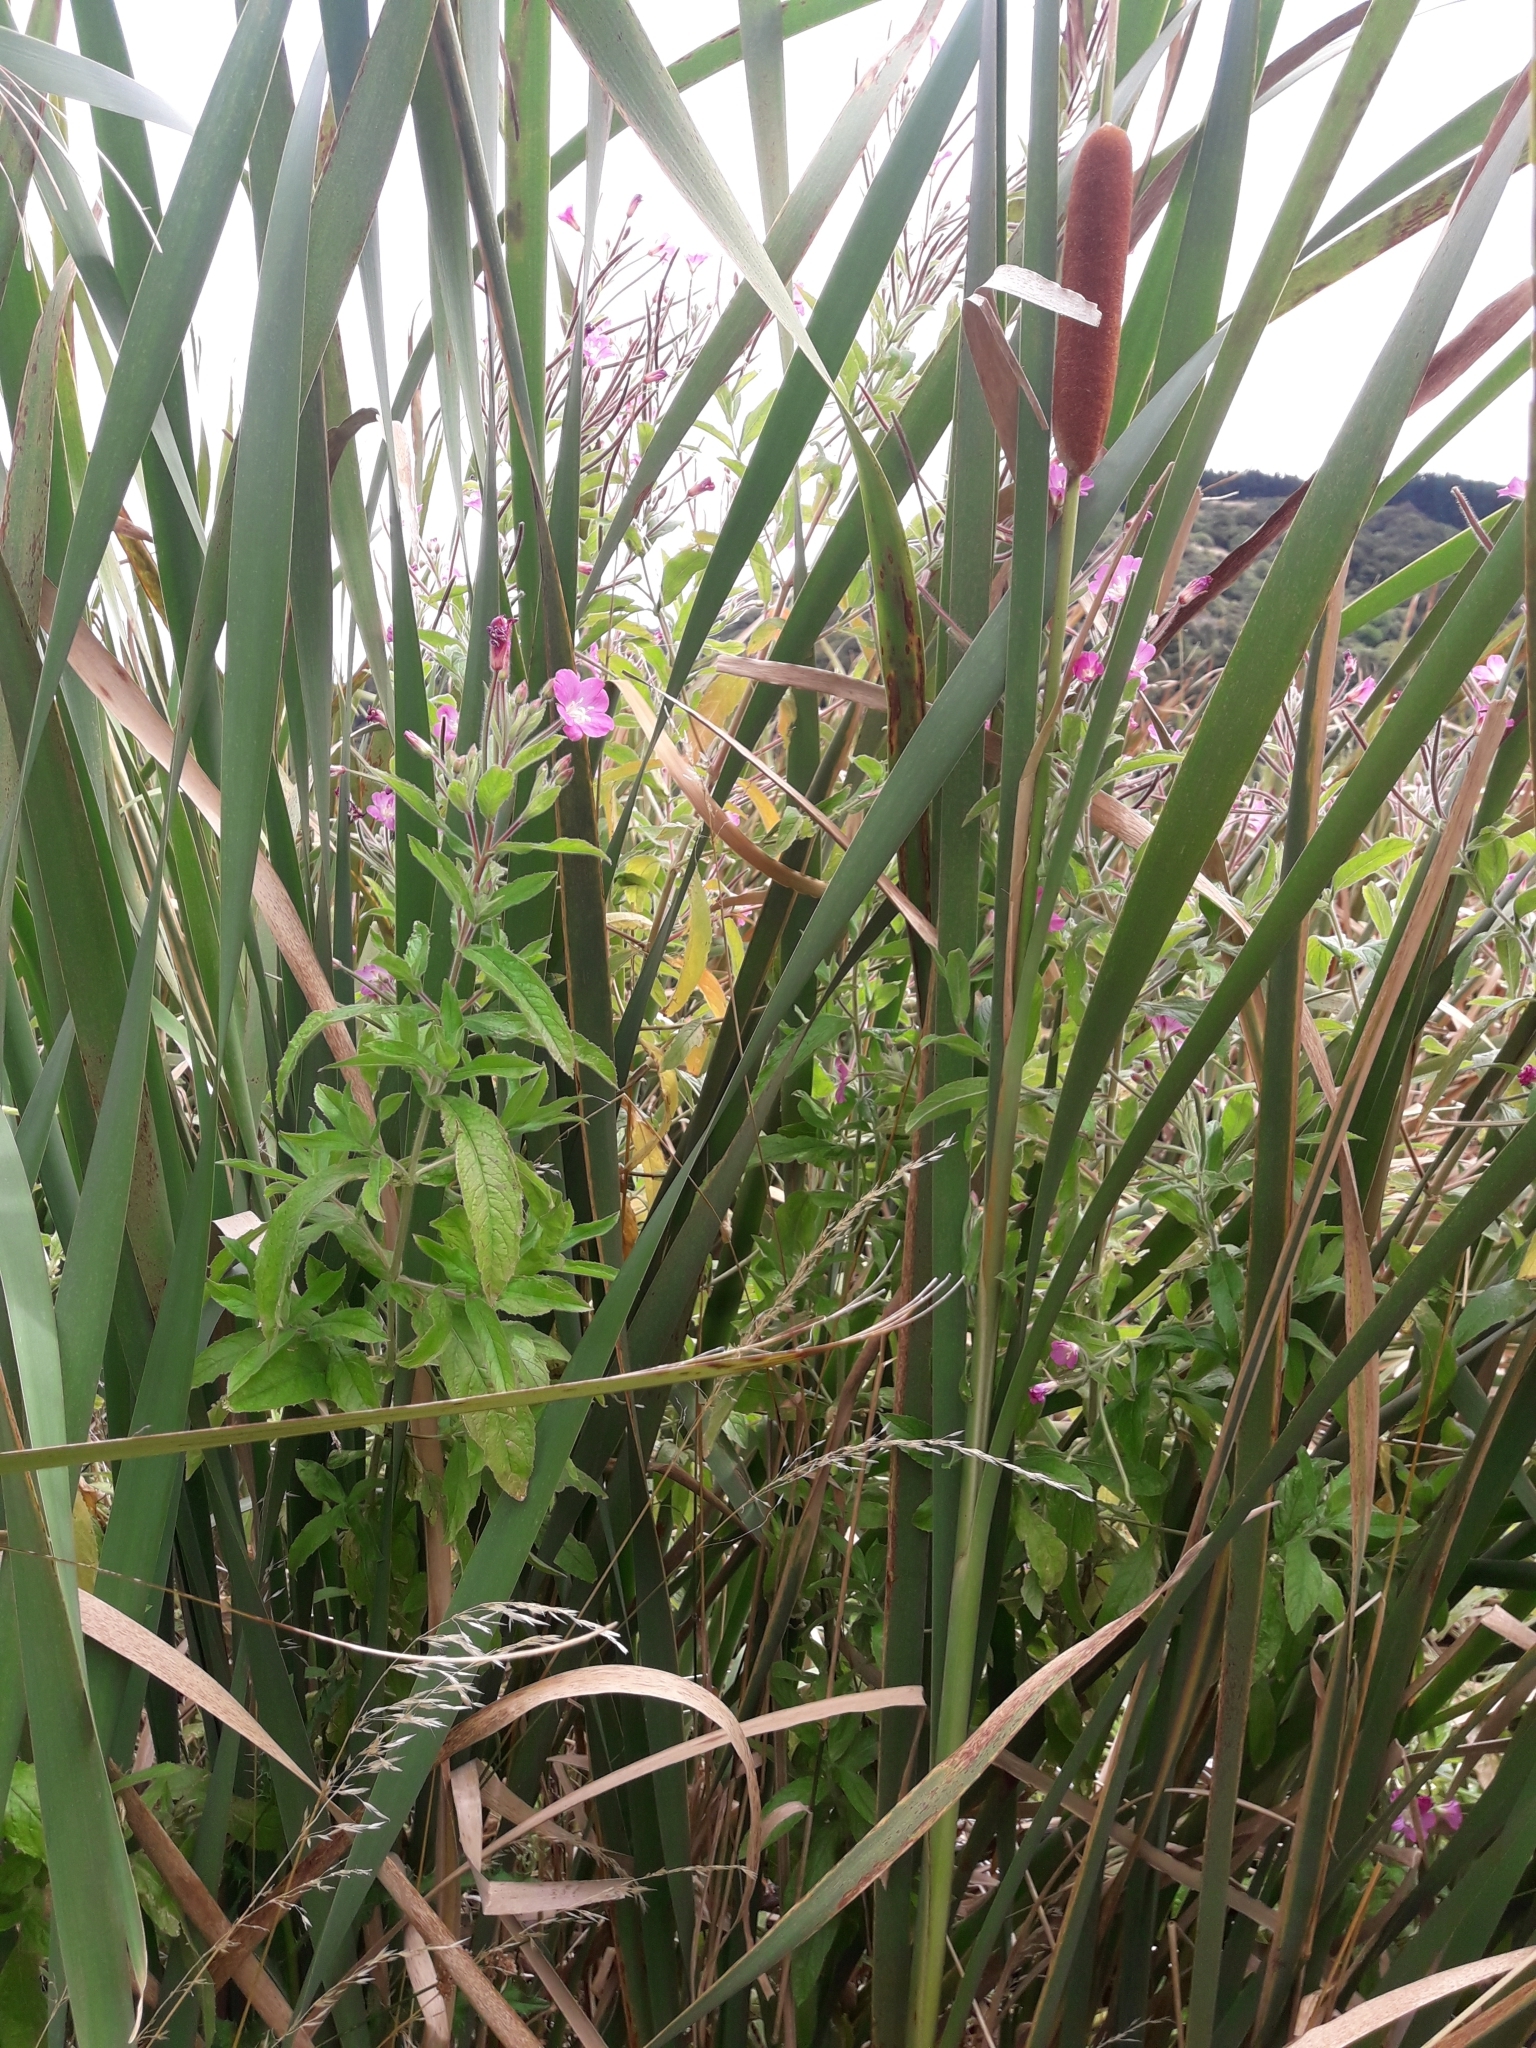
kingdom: Plantae
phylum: Tracheophyta
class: Magnoliopsida
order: Myrtales
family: Onagraceae
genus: Epilobium
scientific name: Epilobium hirsutum
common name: Great willowherb
